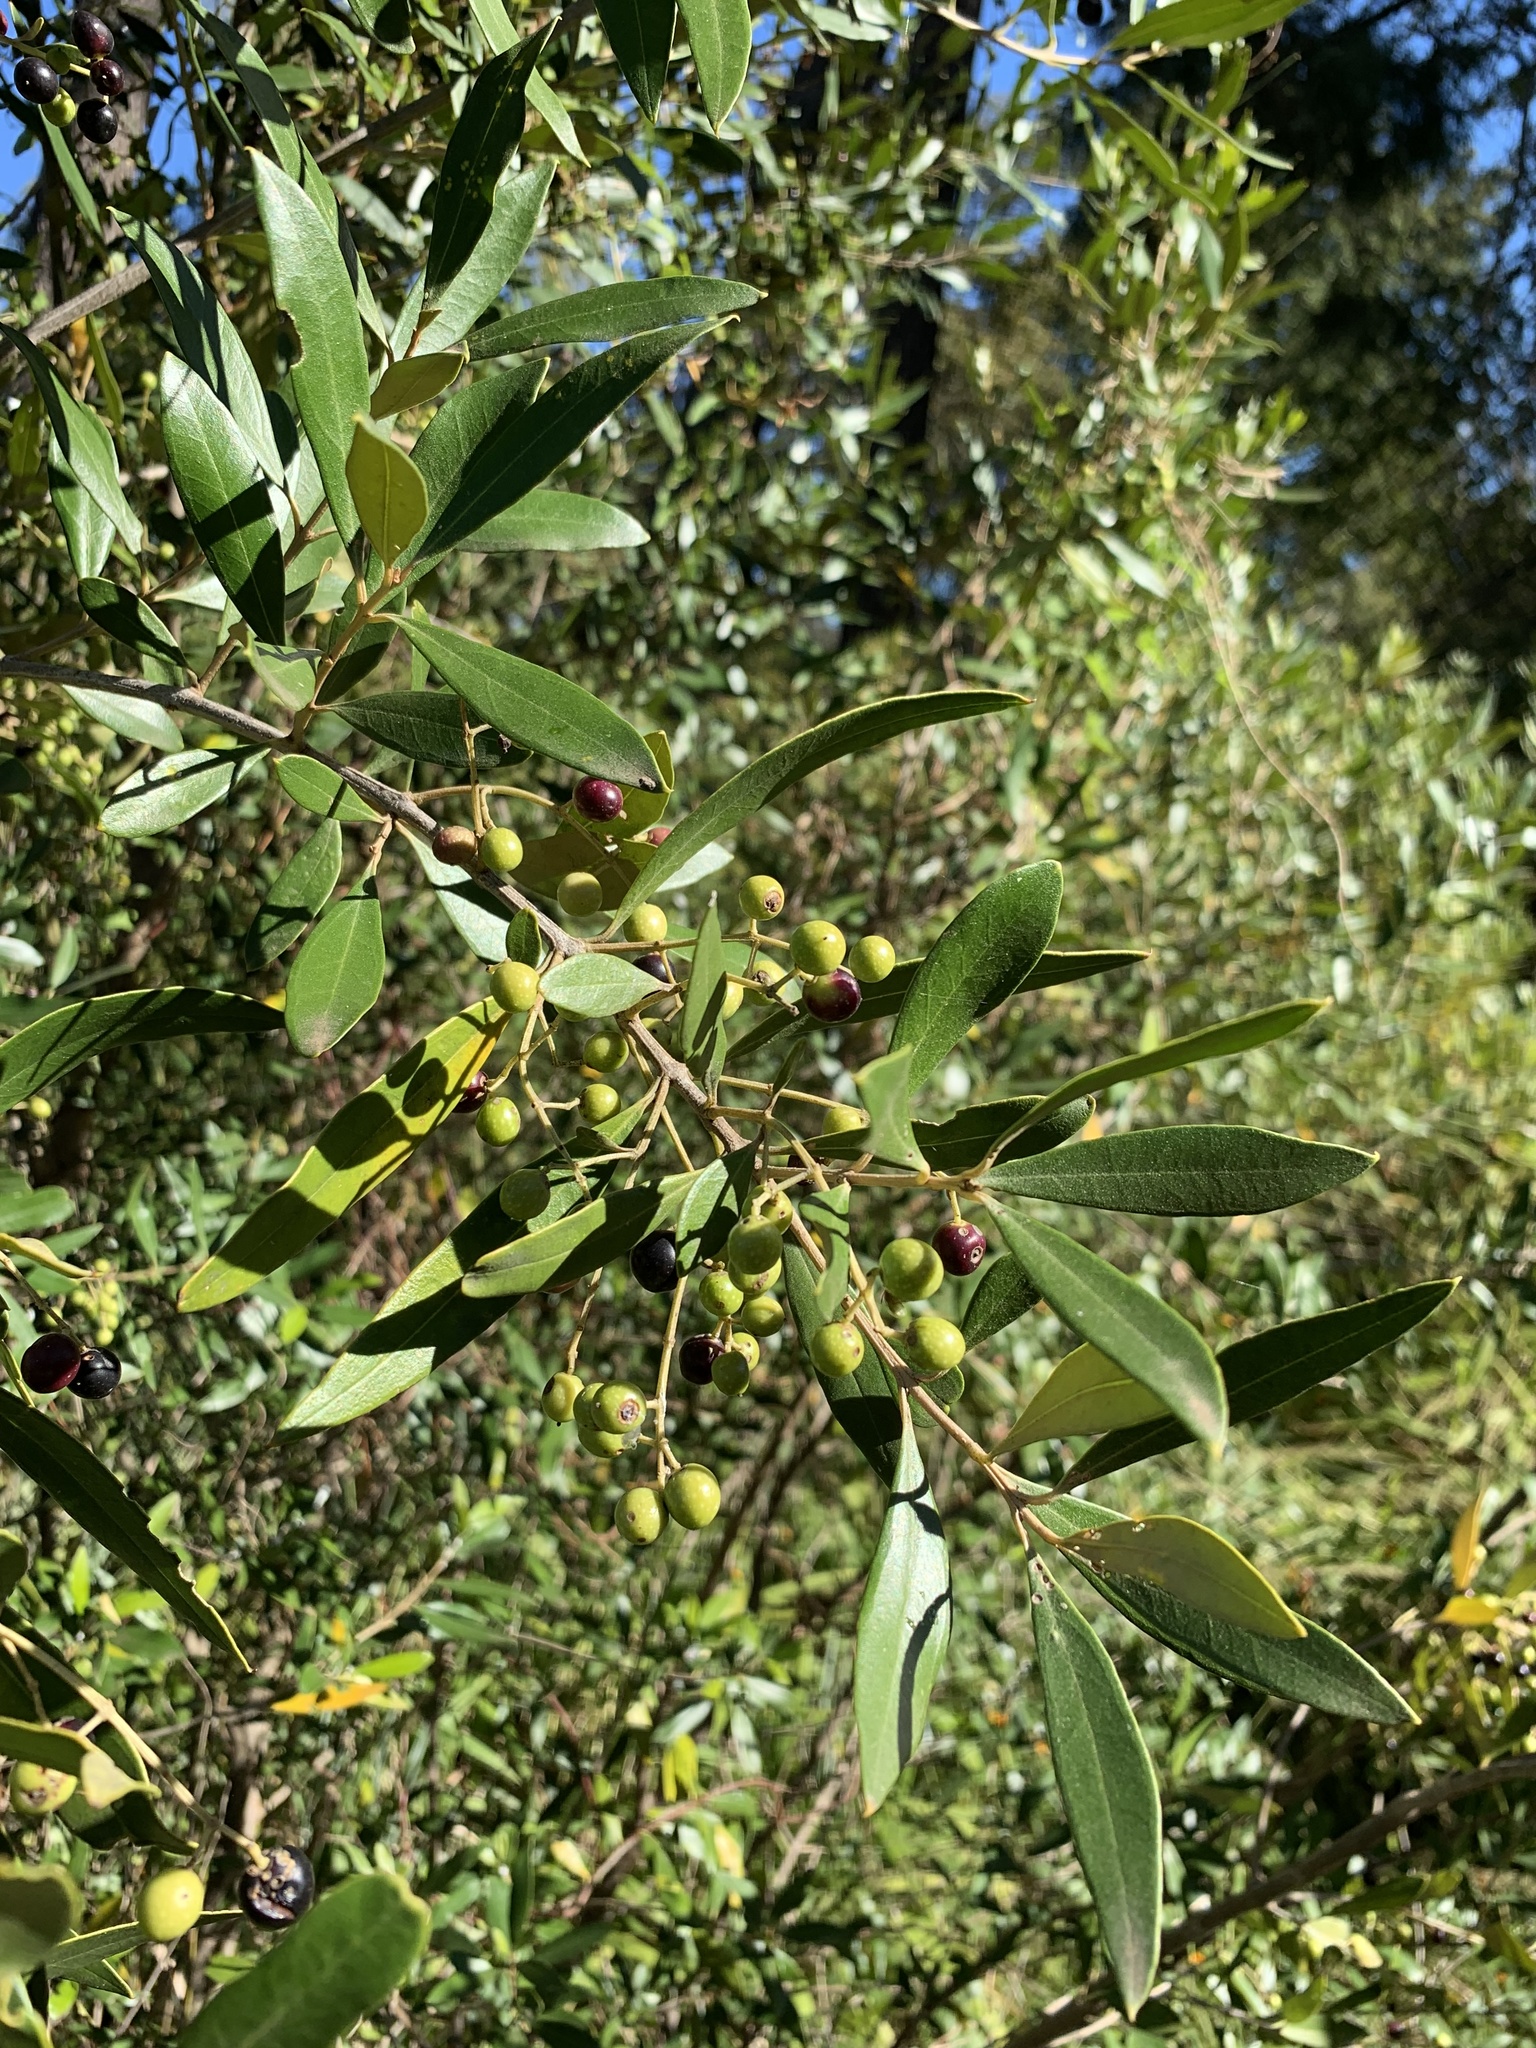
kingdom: Plantae
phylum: Tracheophyta
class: Magnoliopsida
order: Lamiales
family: Oleaceae
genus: Olea
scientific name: Olea europaea
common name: Olive
